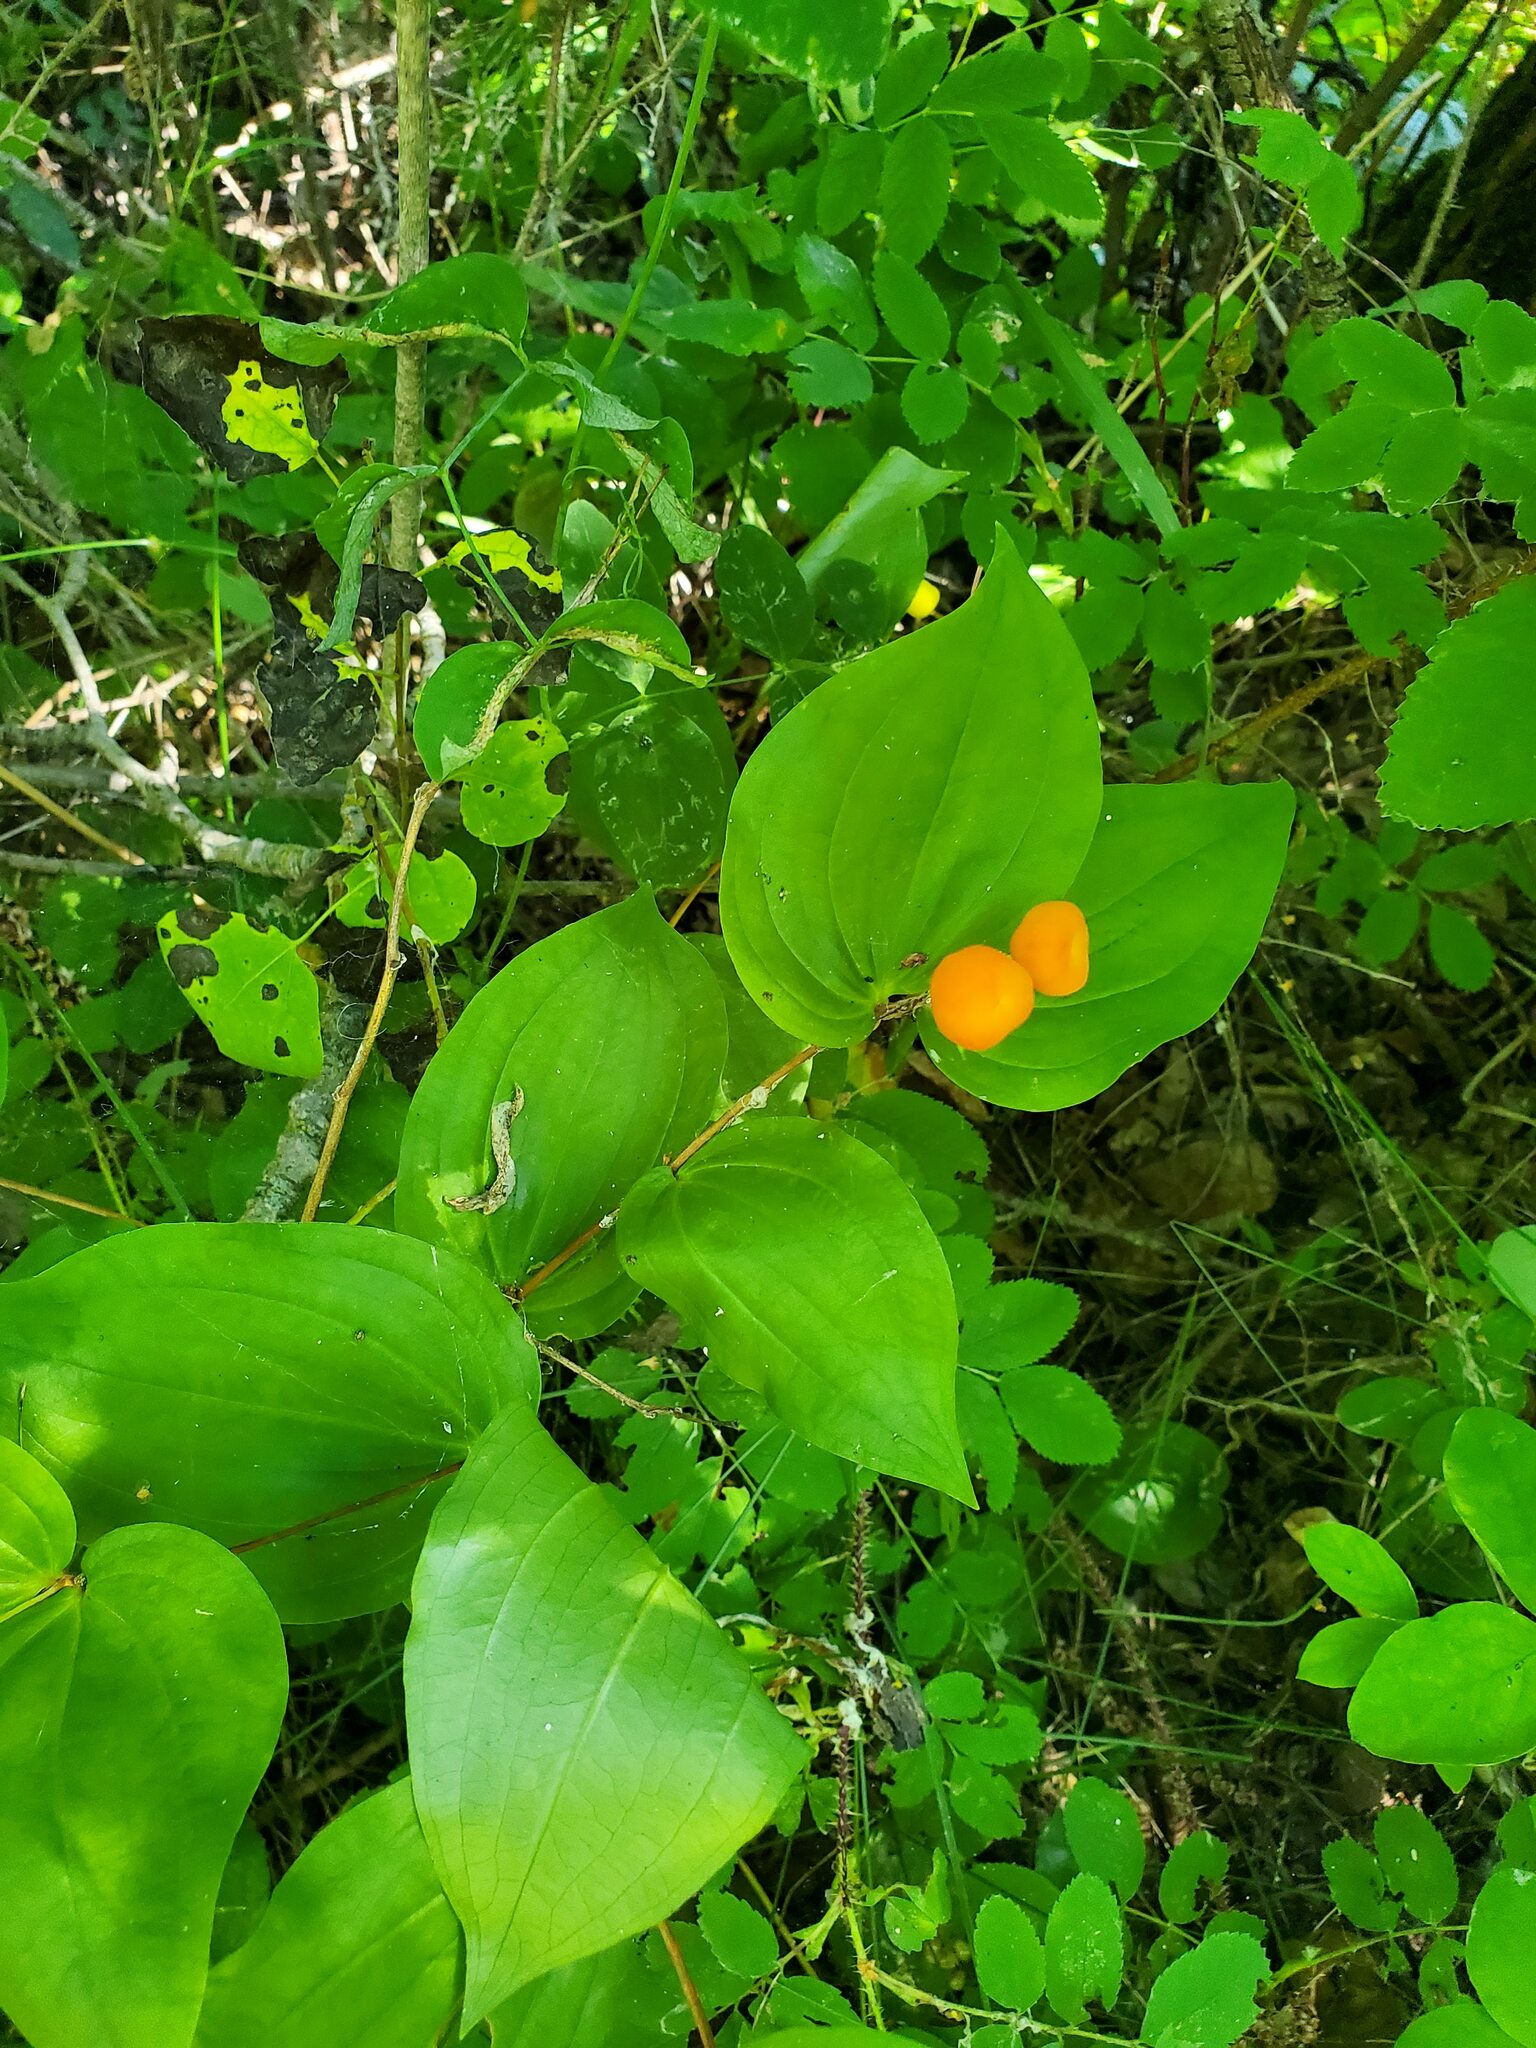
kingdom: Plantae
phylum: Tracheophyta
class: Liliopsida
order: Liliales
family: Liliaceae
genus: Prosartes
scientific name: Prosartes trachycarpa
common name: Rough-fruit fairy-bells
